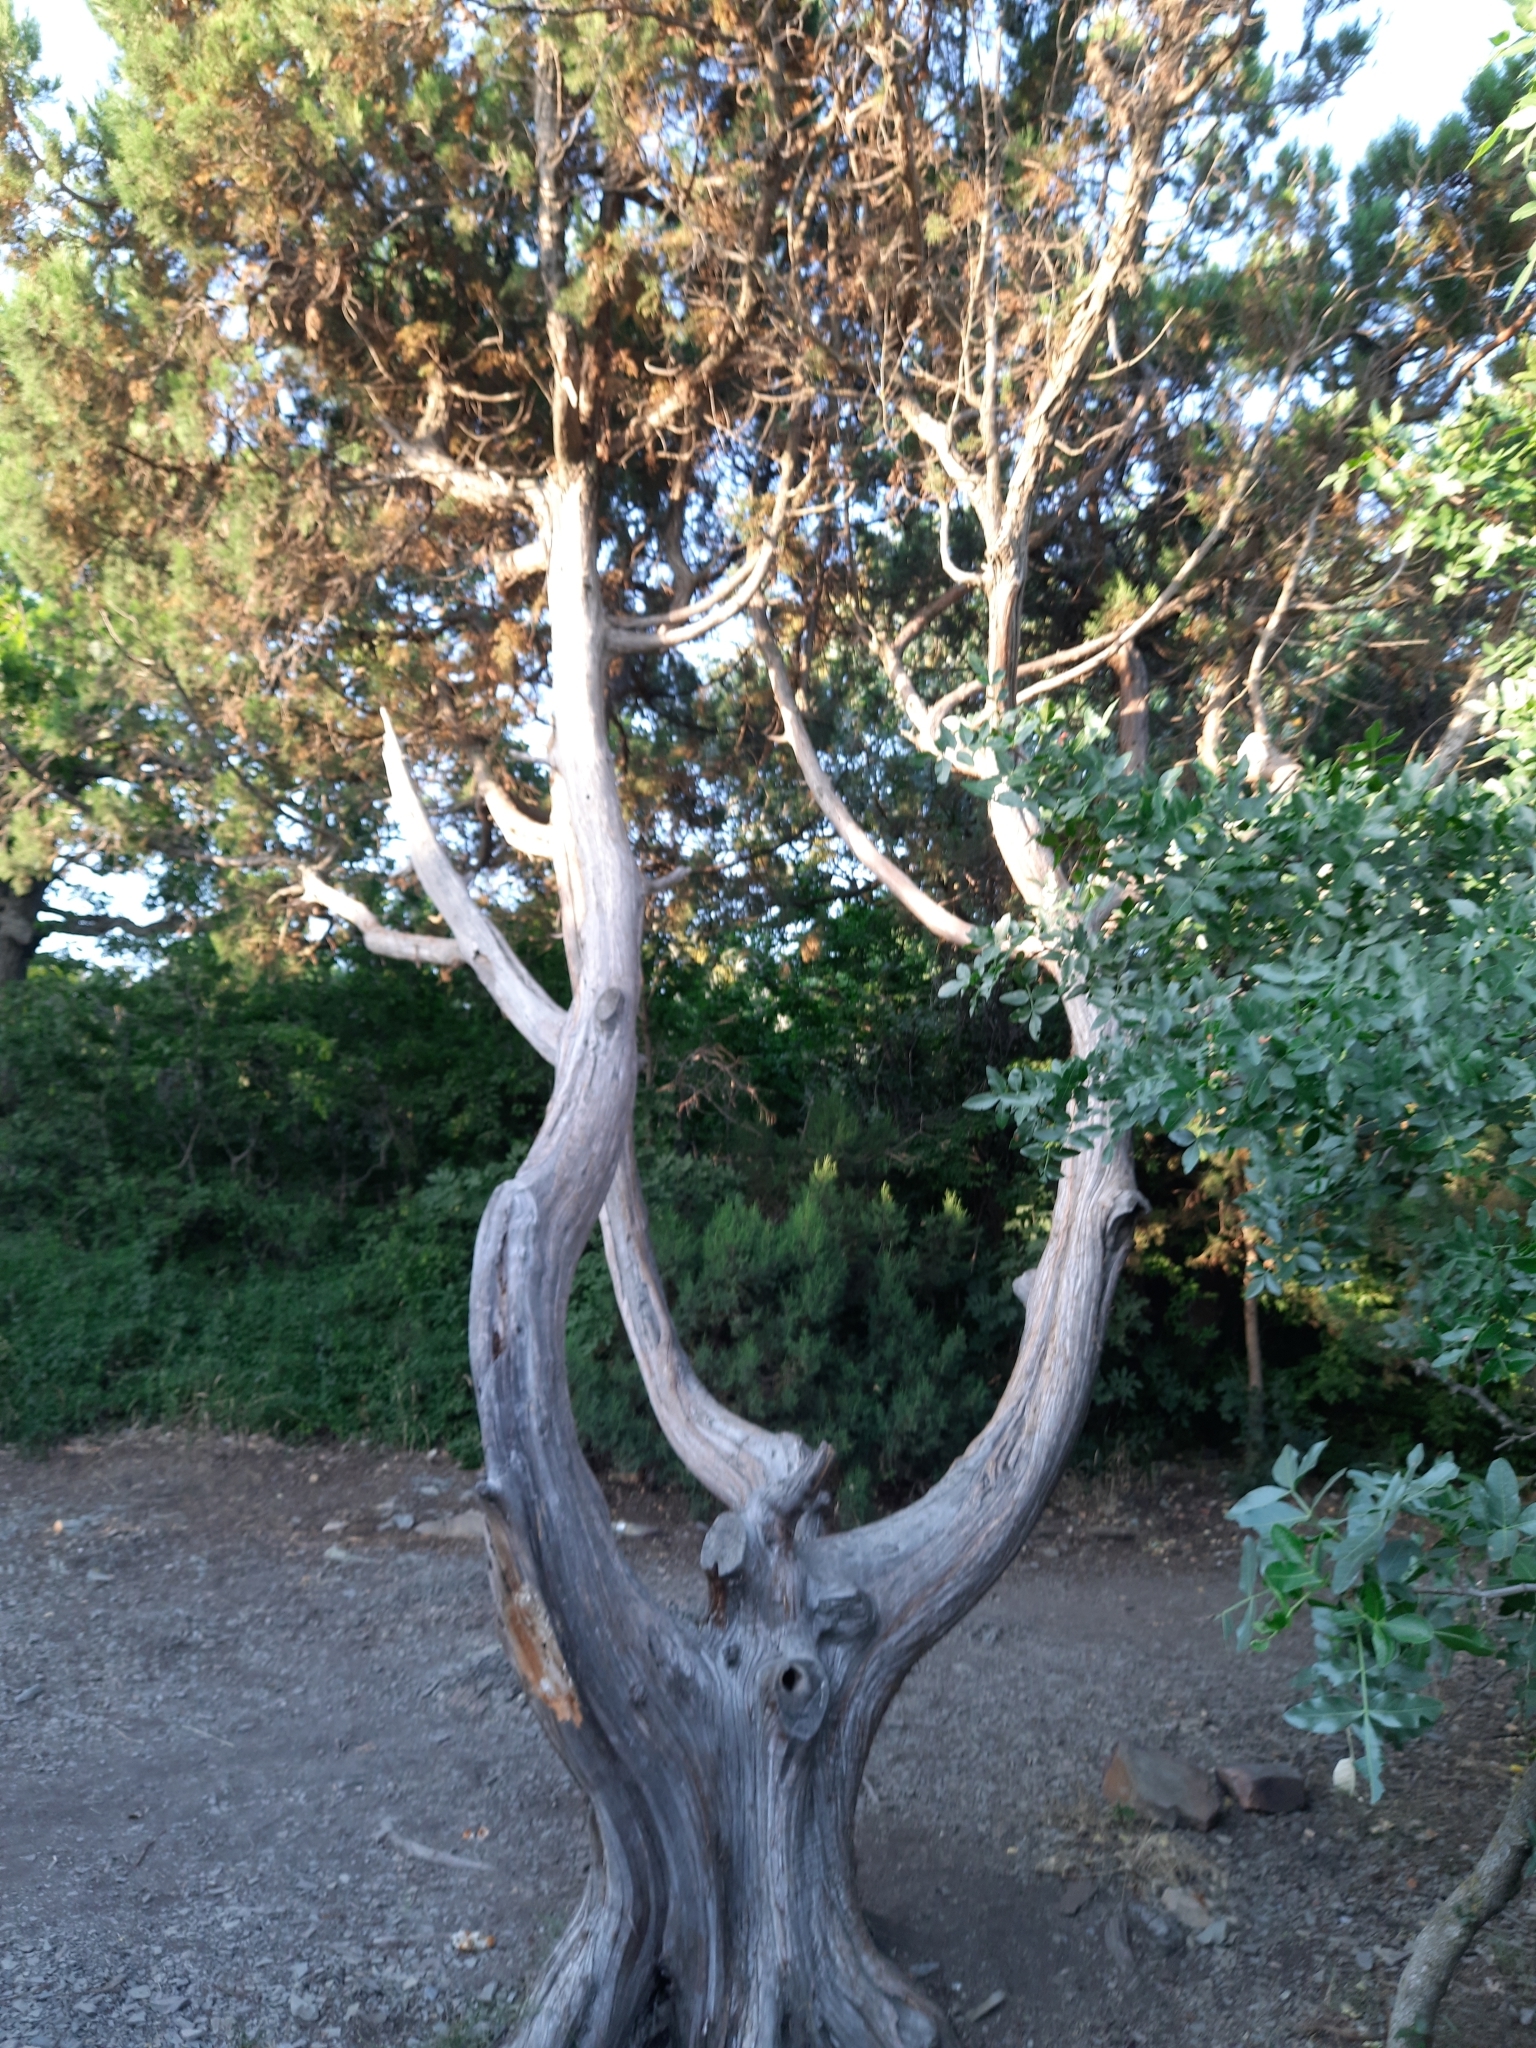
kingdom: Plantae
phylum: Tracheophyta
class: Pinopsida
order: Pinales
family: Cupressaceae
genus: Juniperus
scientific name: Juniperus excelsa
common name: Crimean juniper
